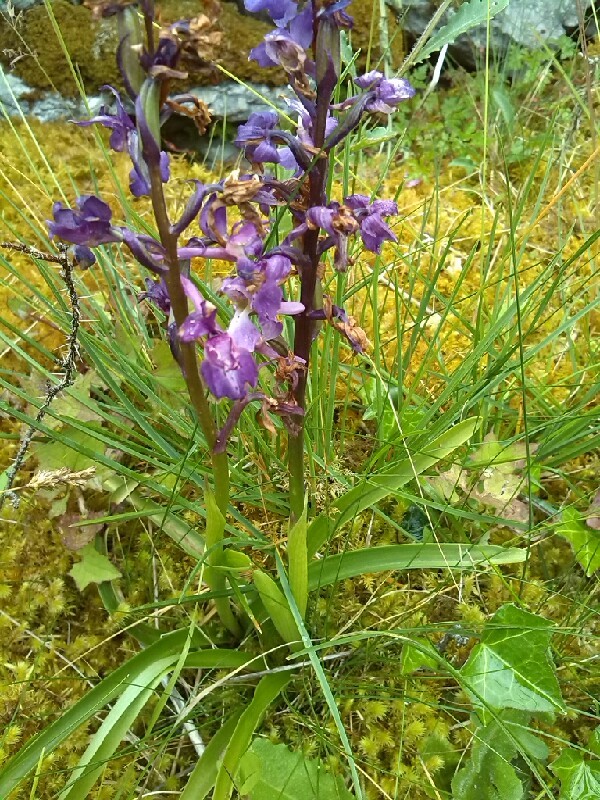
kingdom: Plantae
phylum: Tracheophyta
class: Liliopsida
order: Asparagales
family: Orchidaceae
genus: Anacamptis
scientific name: Anacamptis morio
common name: Green-winged orchid
